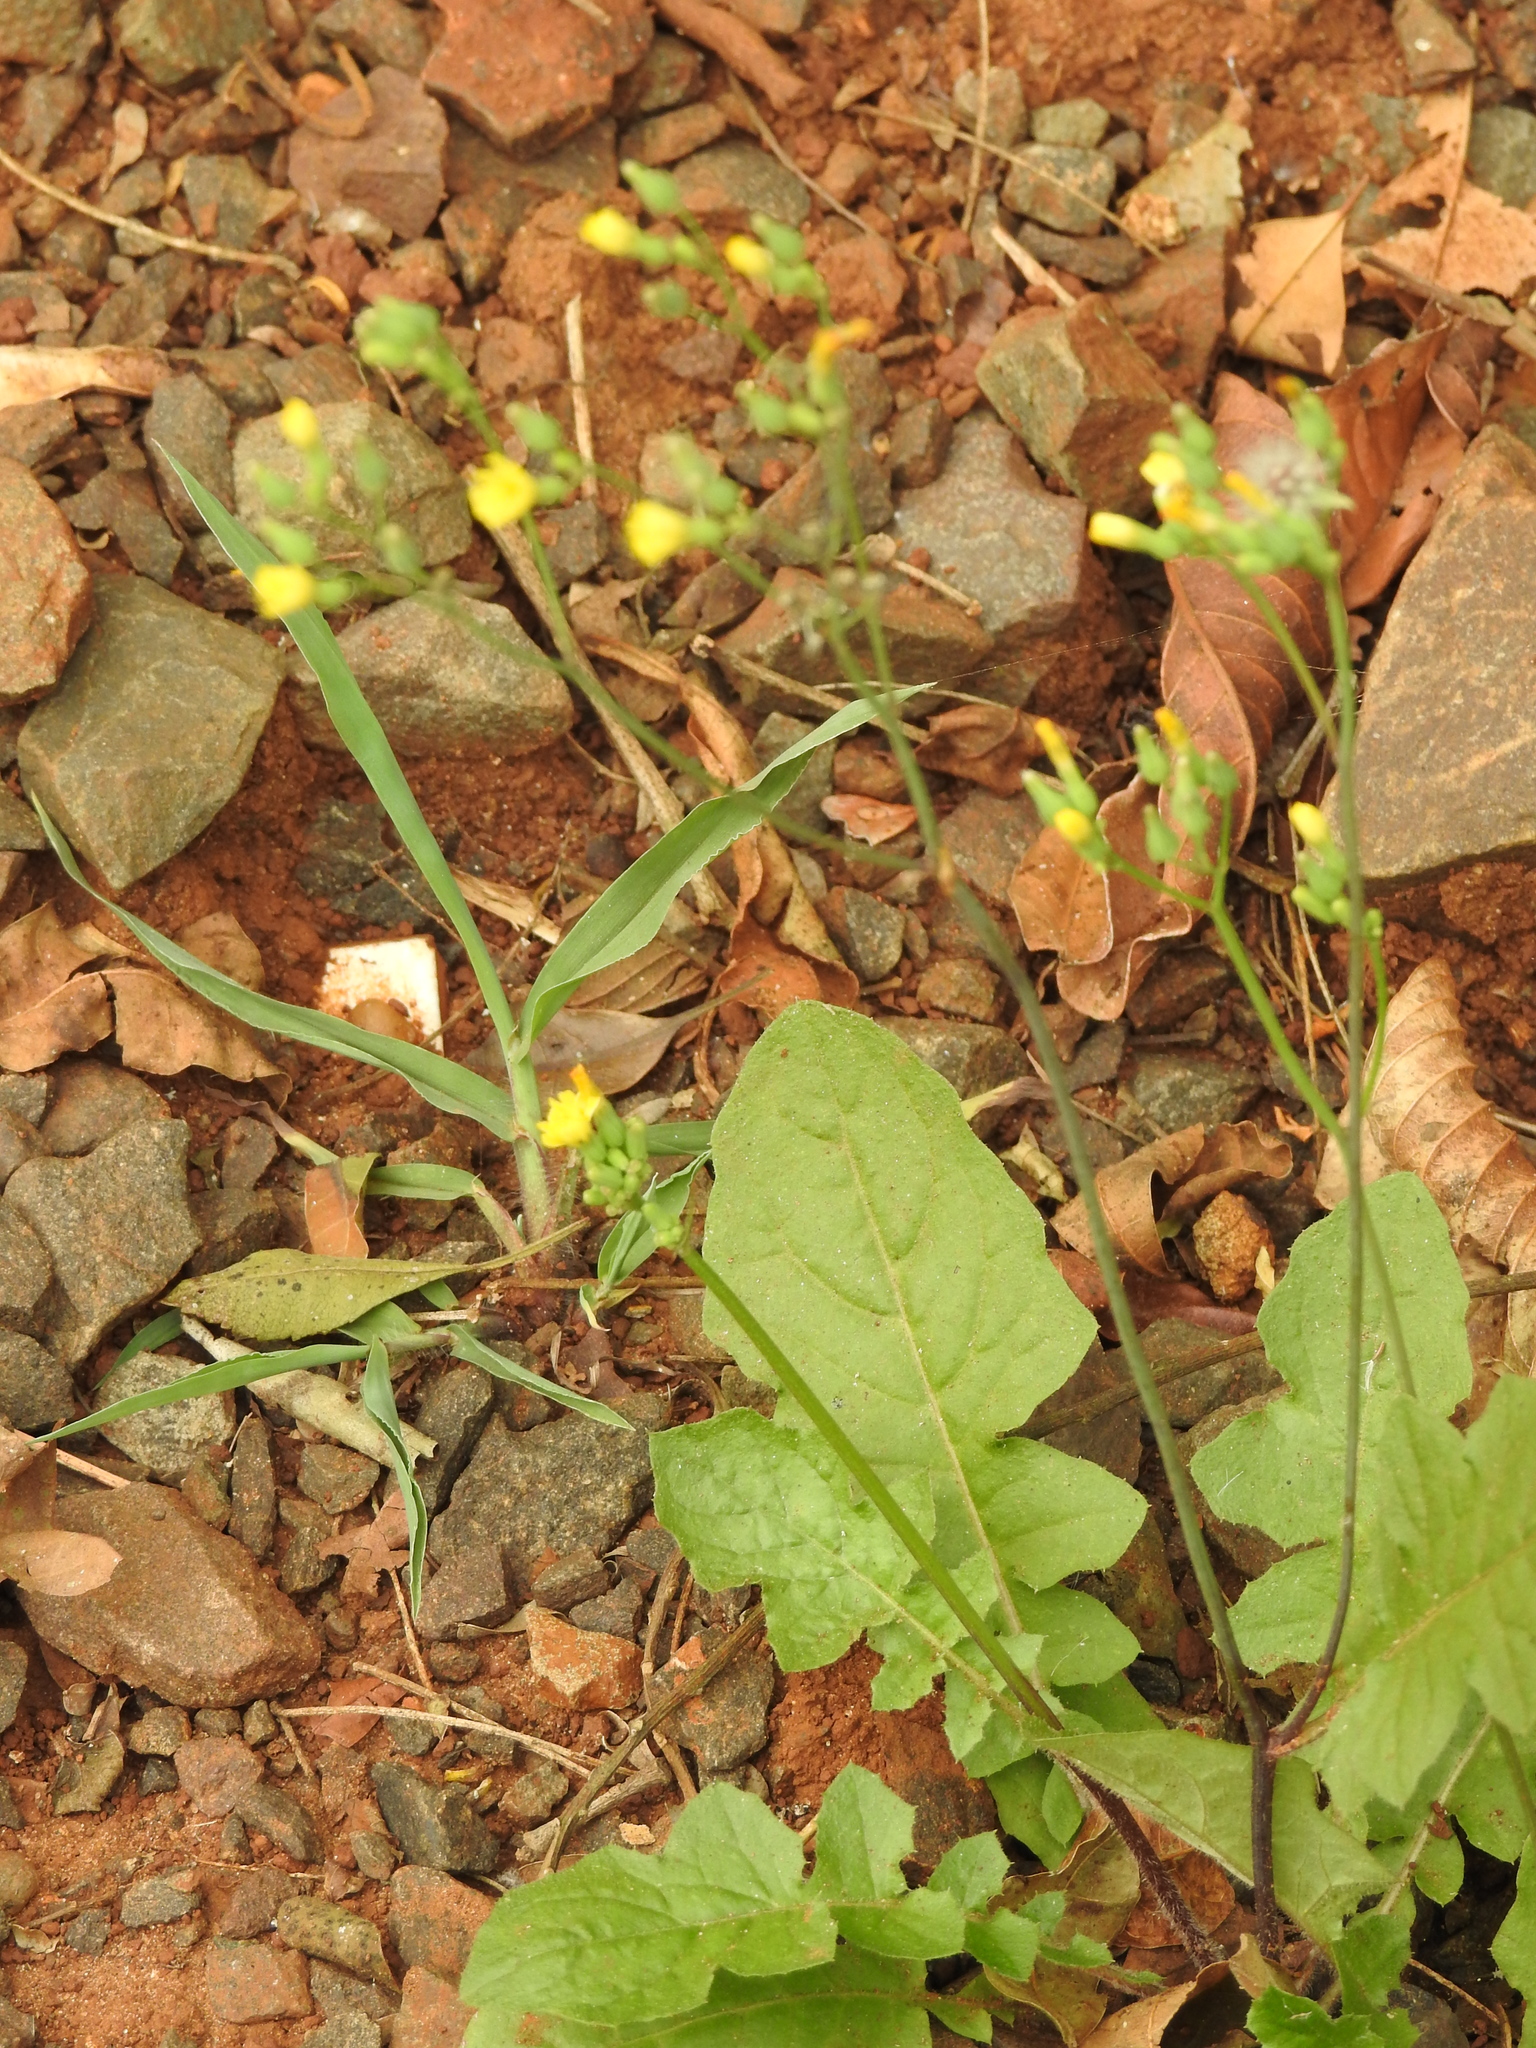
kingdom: Plantae
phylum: Tracheophyta
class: Magnoliopsida
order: Asterales
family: Asteraceae
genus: Youngia
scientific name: Youngia japonica
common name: Oriental false hawksbeard
